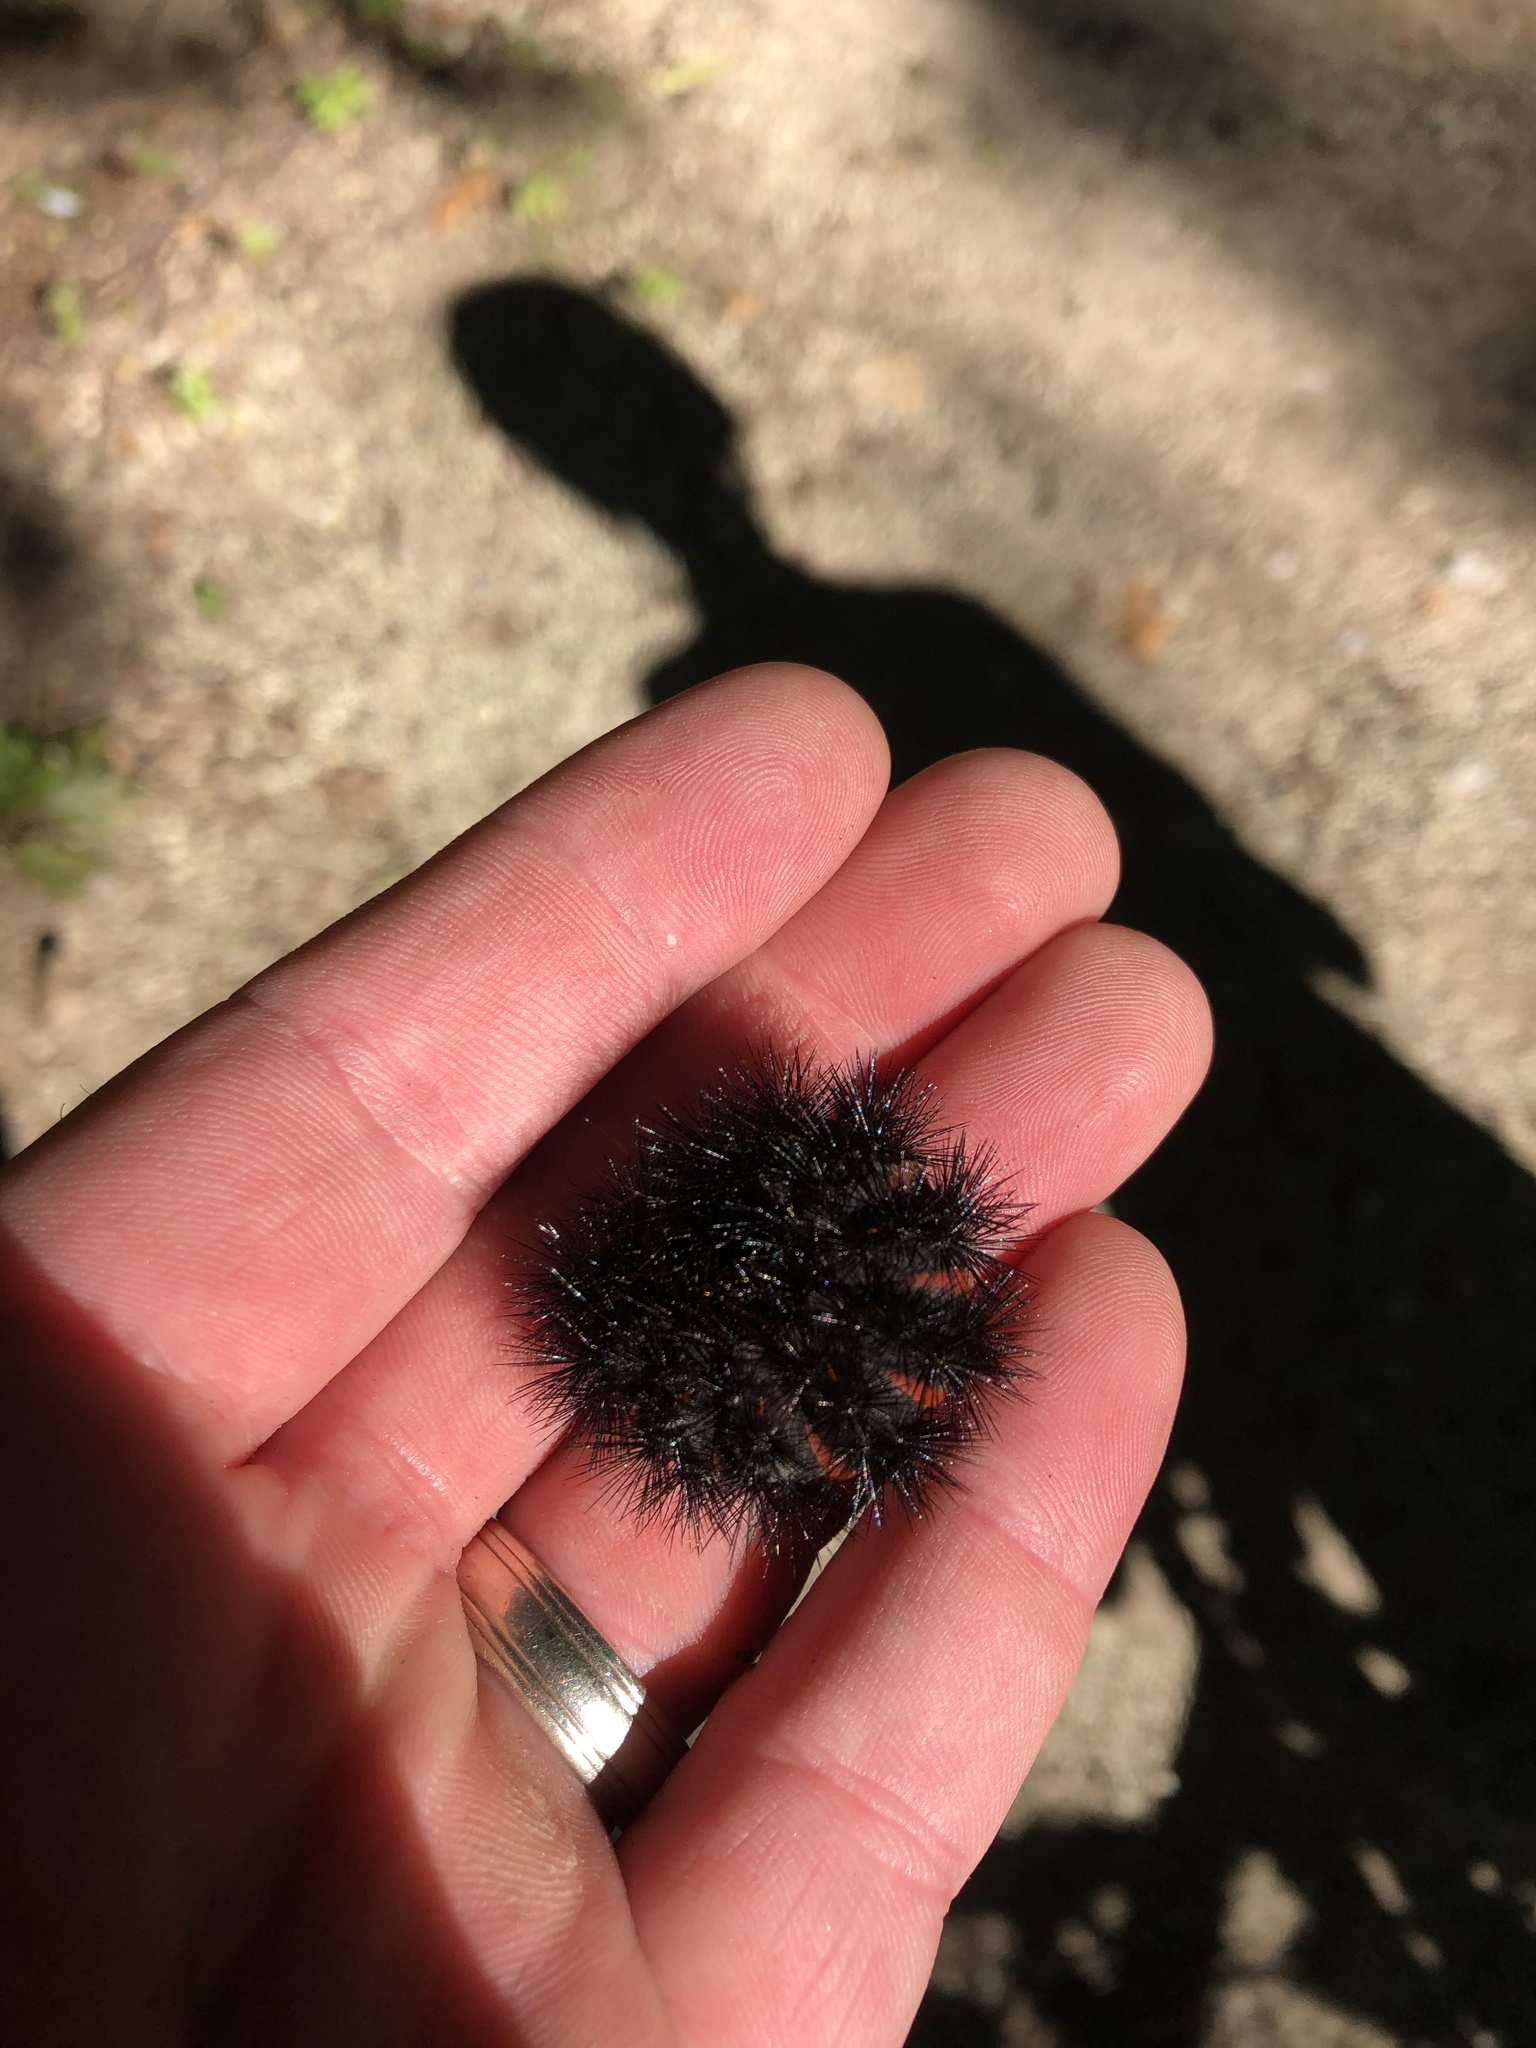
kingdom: Animalia
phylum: Arthropoda
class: Insecta
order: Lepidoptera
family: Erebidae
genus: Hypercompe
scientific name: Hypercompe scribonia
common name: Giant leopard moth
